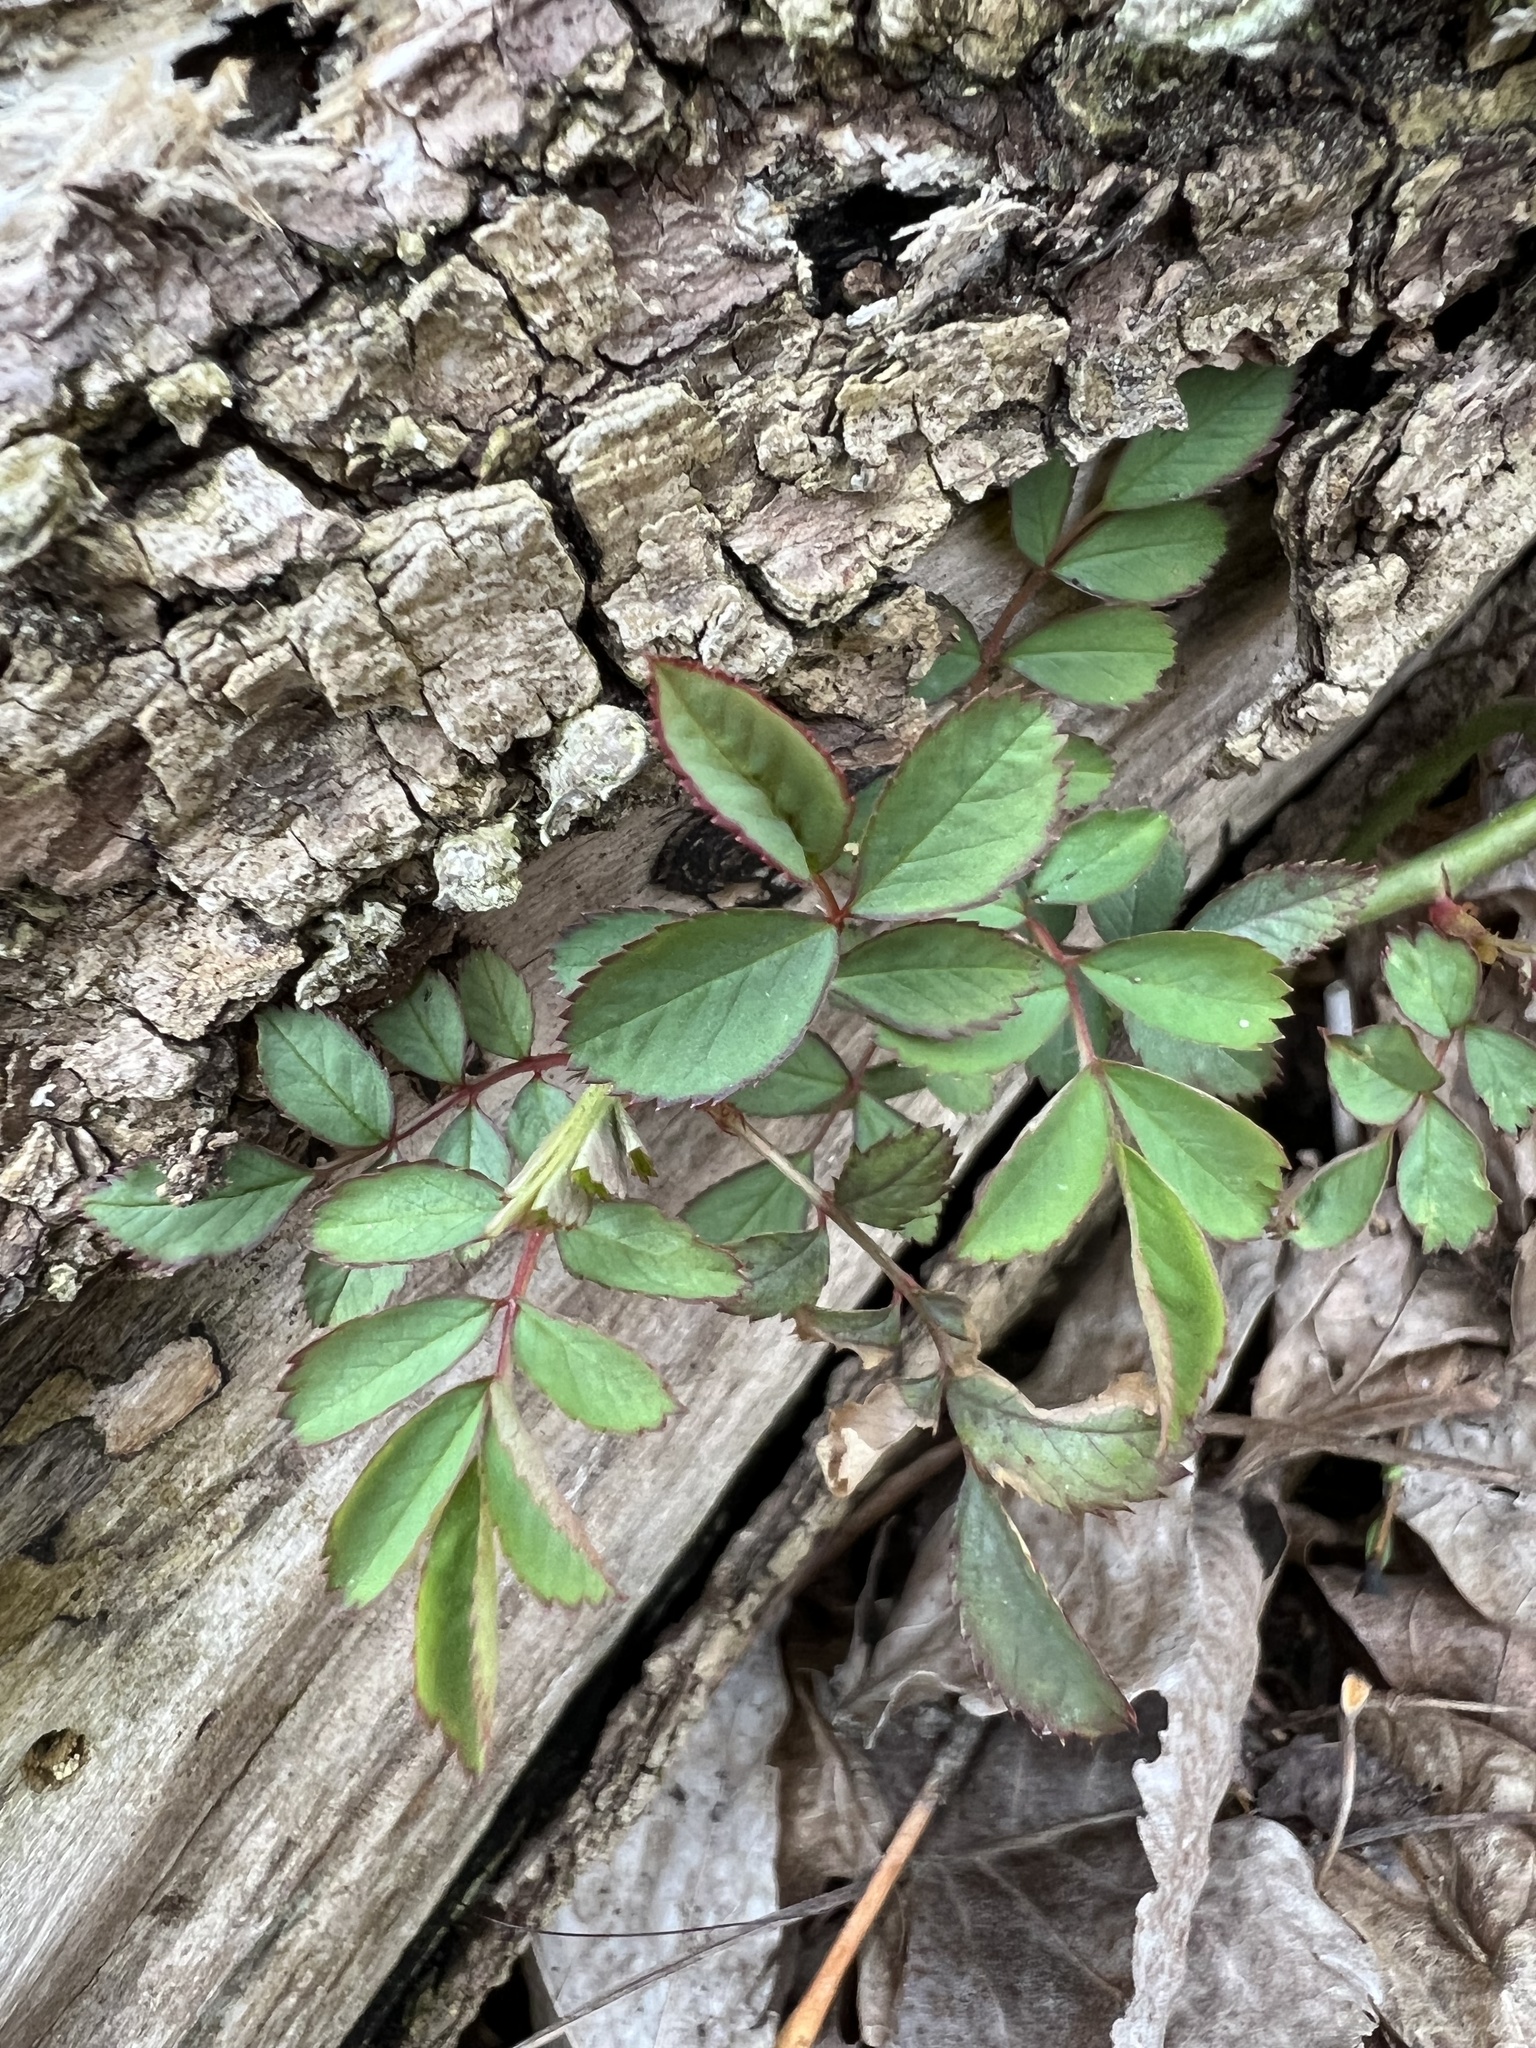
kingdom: Plantae
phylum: Tracheophyta
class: Magnoliopsida
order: Rosales
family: Rosaceae
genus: Rosa
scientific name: Rosa multiflora
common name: Multiflora rose
